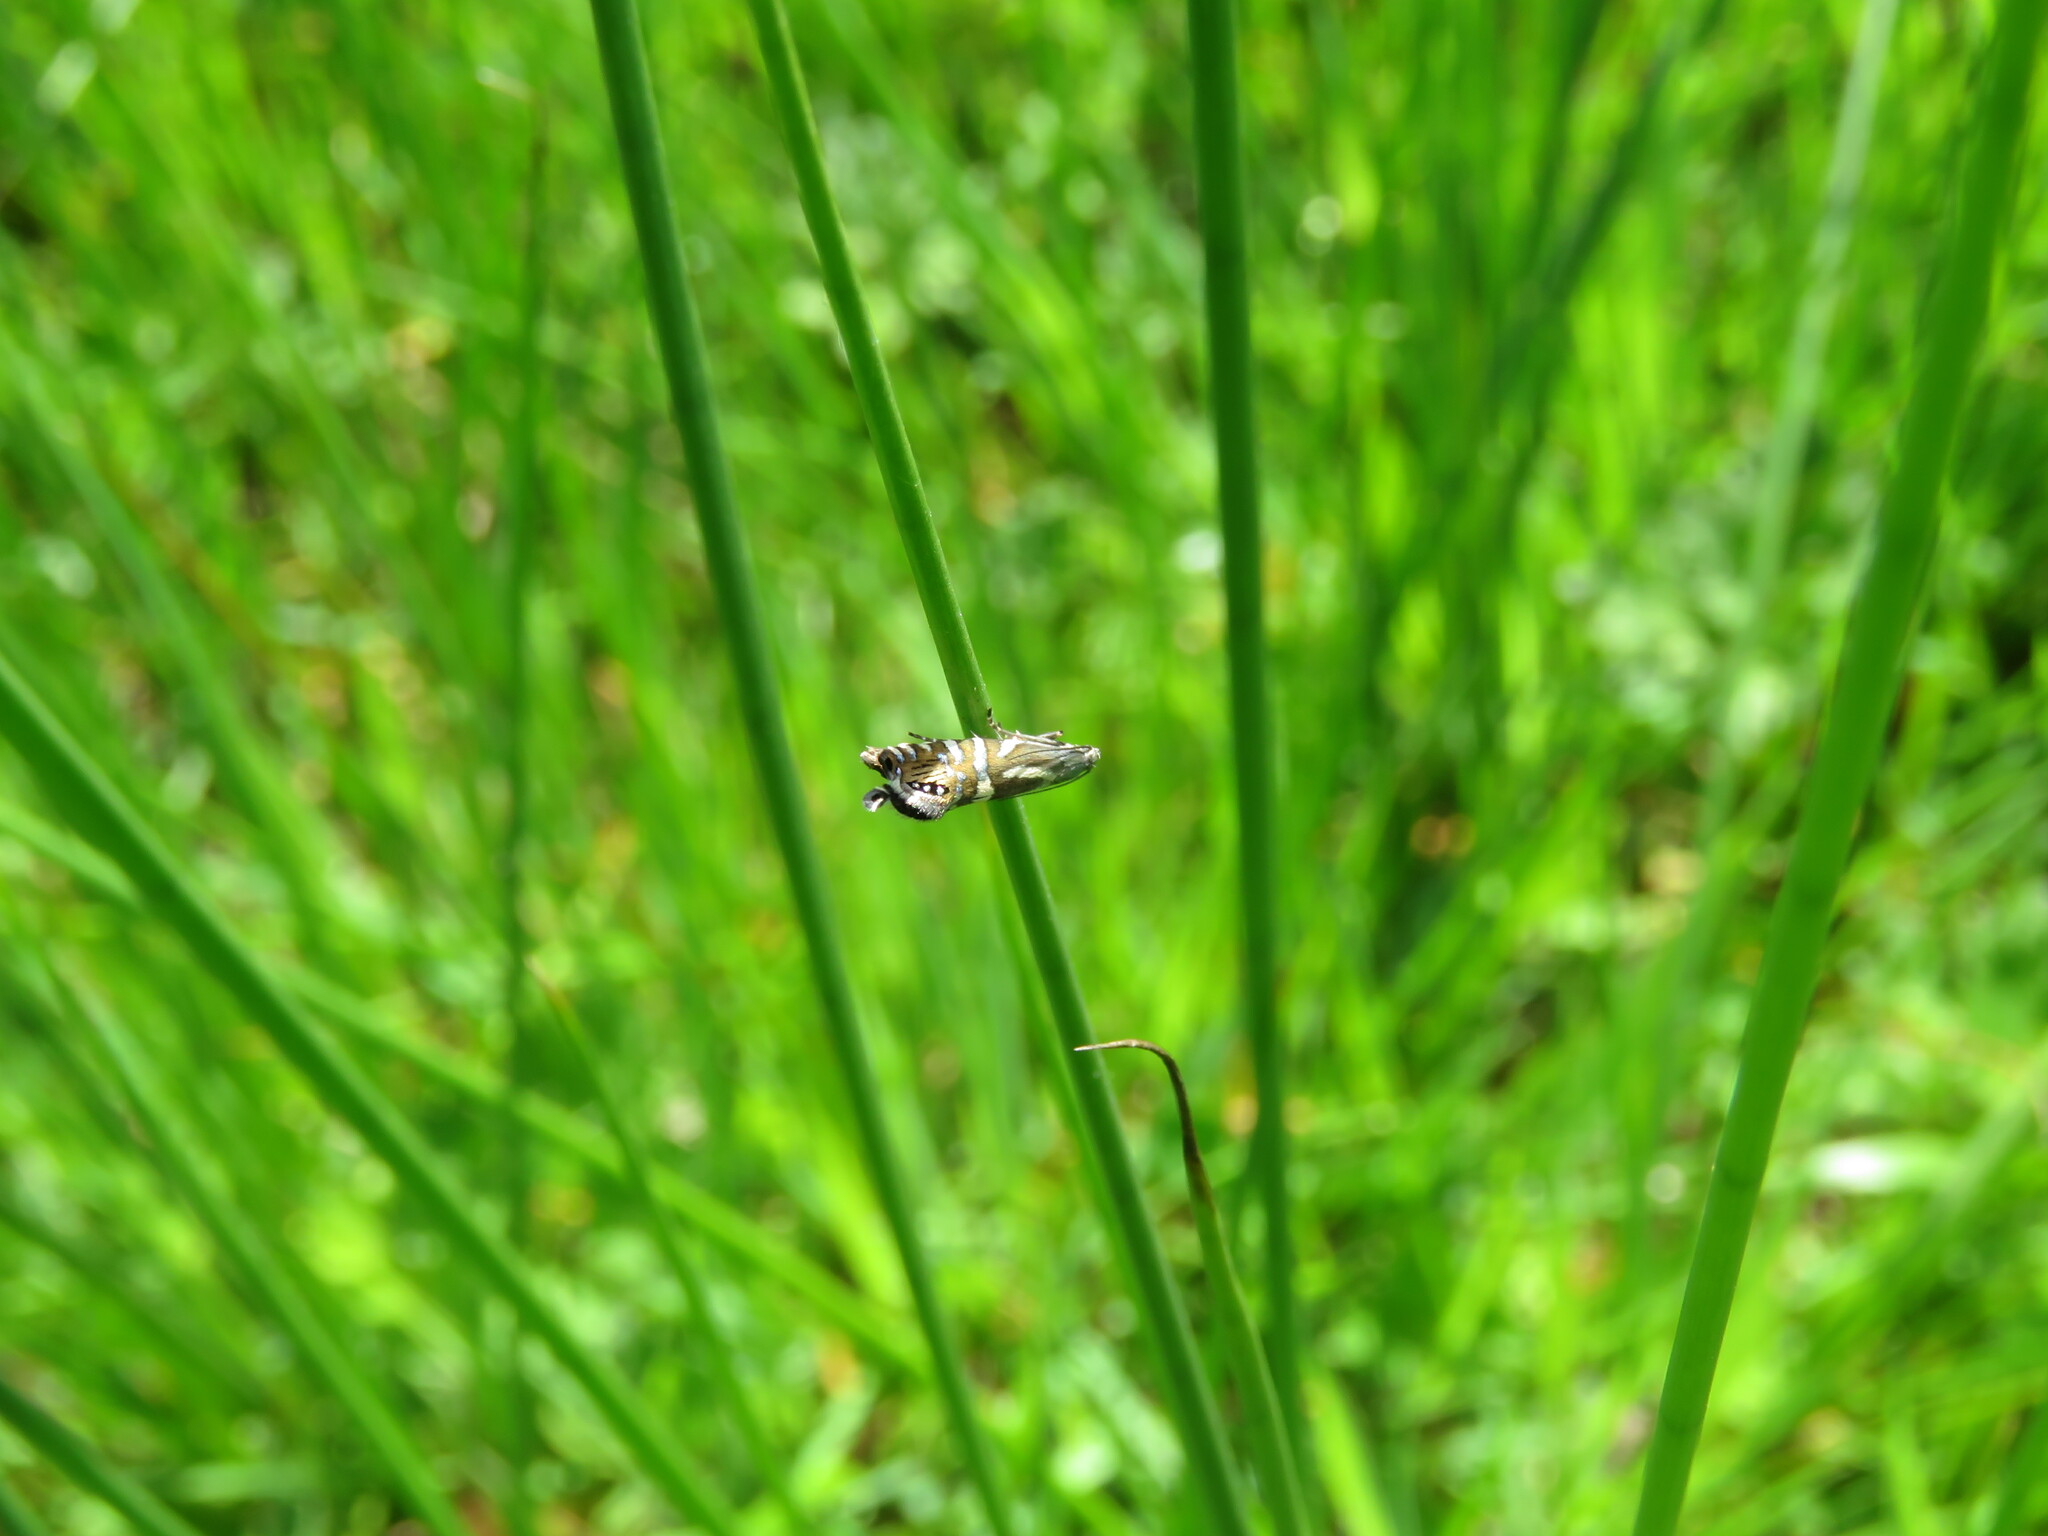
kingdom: Animalia
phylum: Arthropoda
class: Insecta
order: Lepidoptera
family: Glyphipterigidae
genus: Glyphipterix
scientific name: Glyphipterix thrasonella
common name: Speckled fanner
